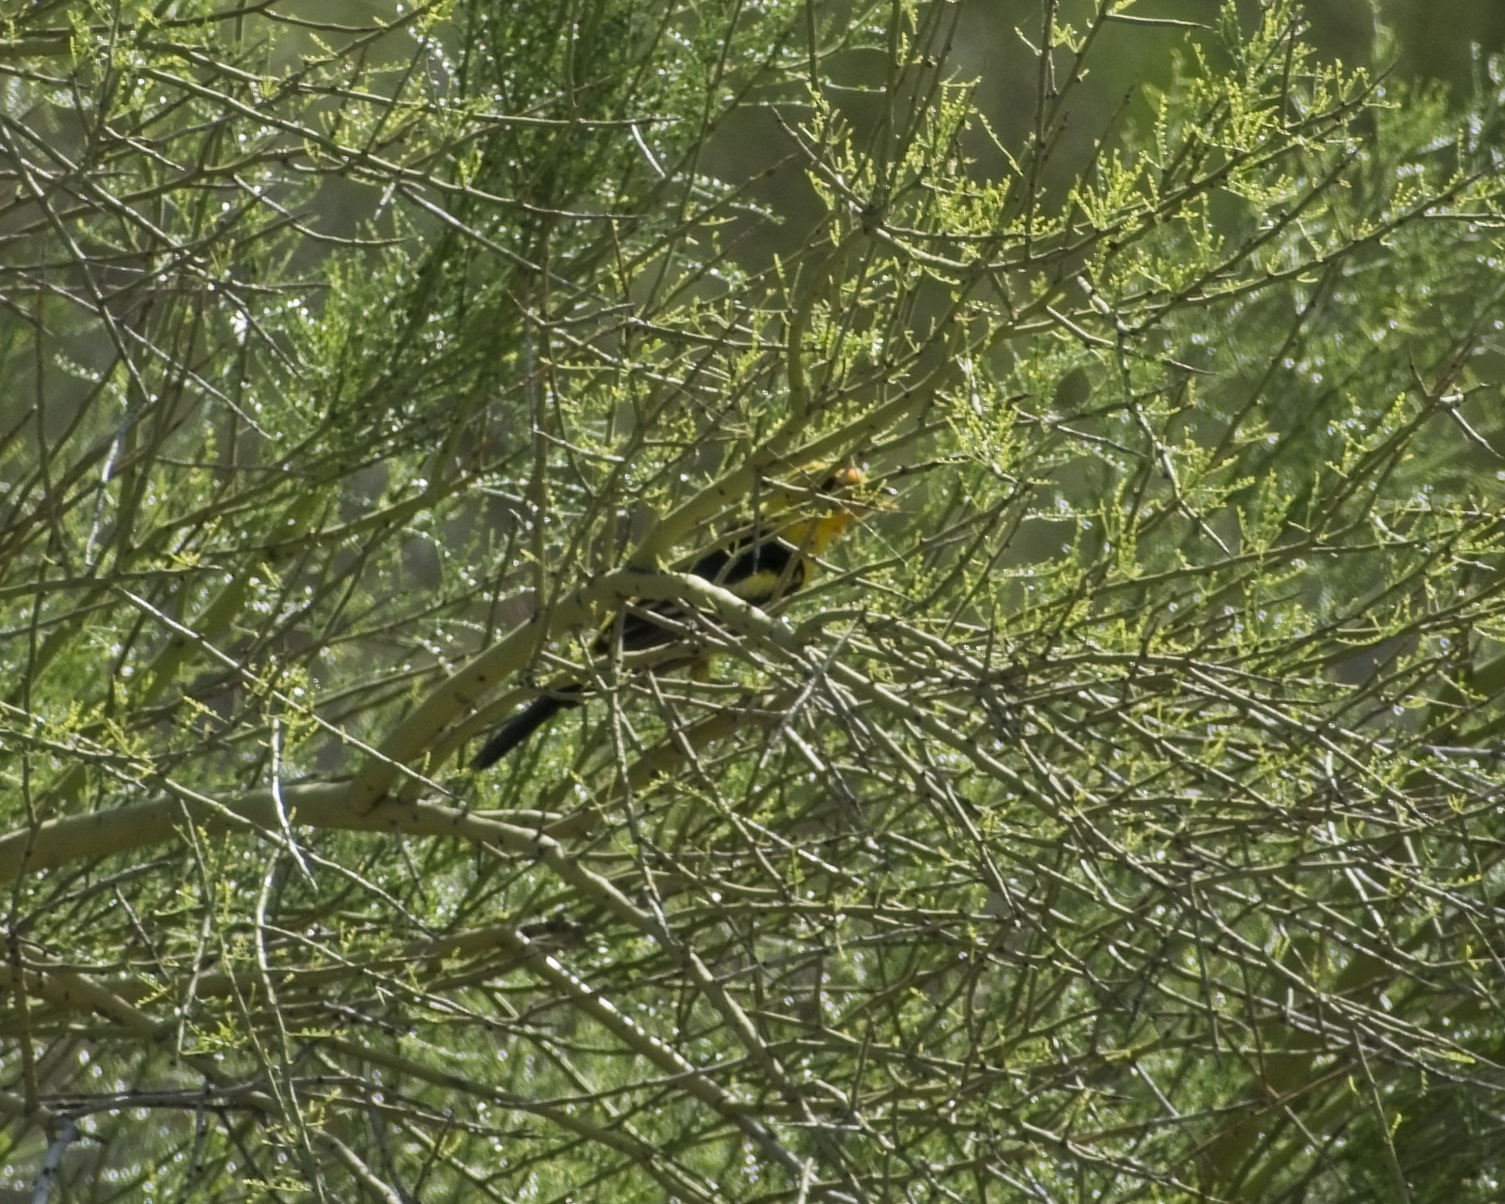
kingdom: Animalia
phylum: Chordata
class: Aves
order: Passeriformes
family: Cardinalidae
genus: Piranga
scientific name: Piranga ludoviciana
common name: Western tanager
